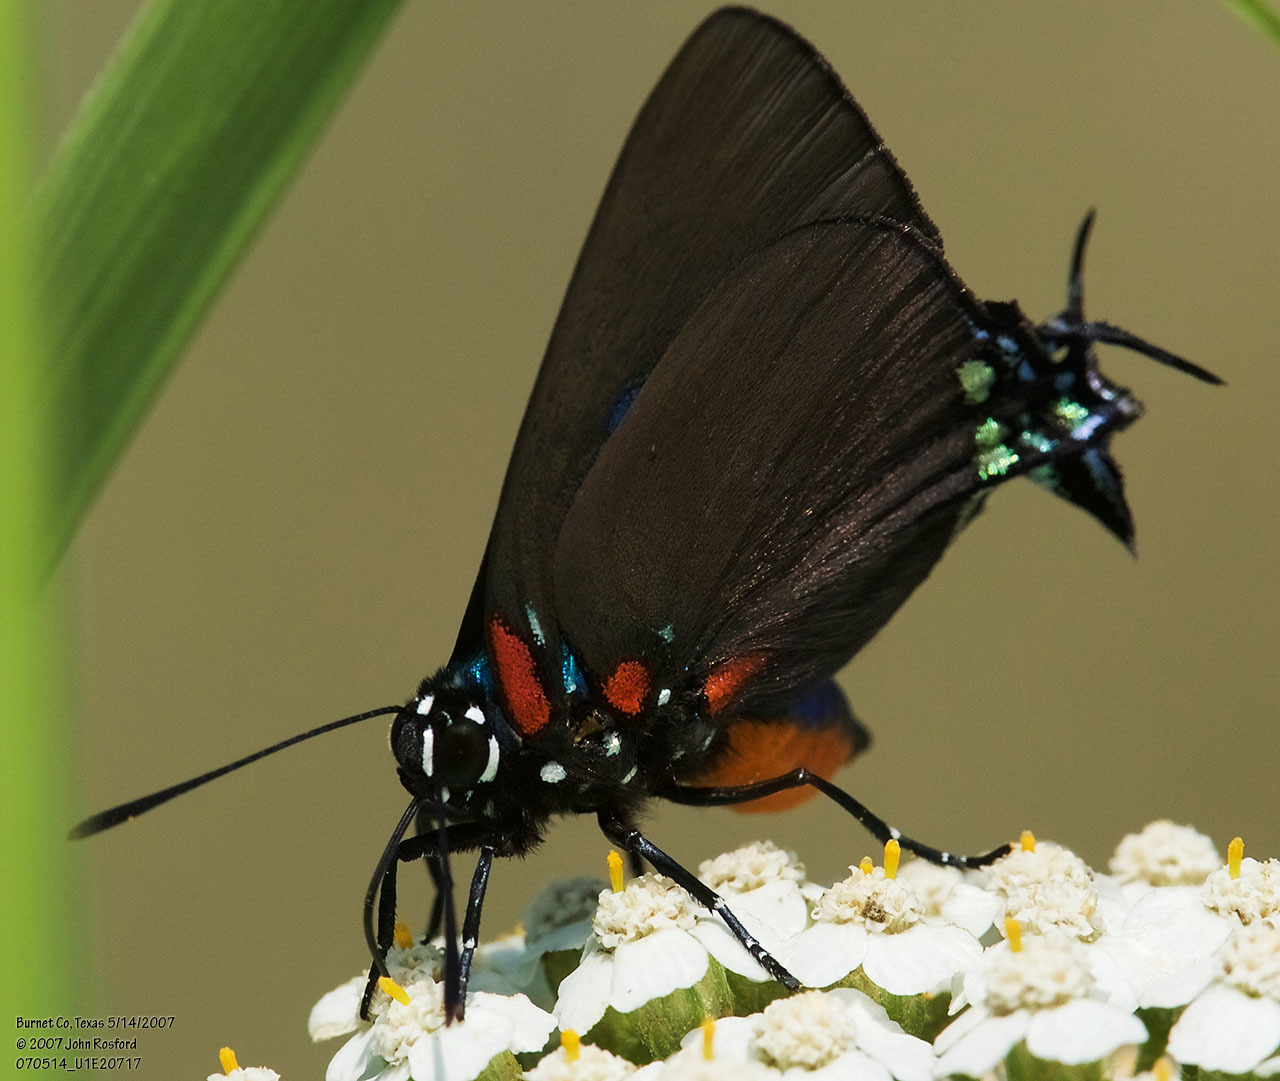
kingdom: Animalia
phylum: Arthropoda
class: Insecta
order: Lepidoptera
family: Lycaenidae
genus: Atlides
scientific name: Atlides halesus
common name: Great purple hairstreak
